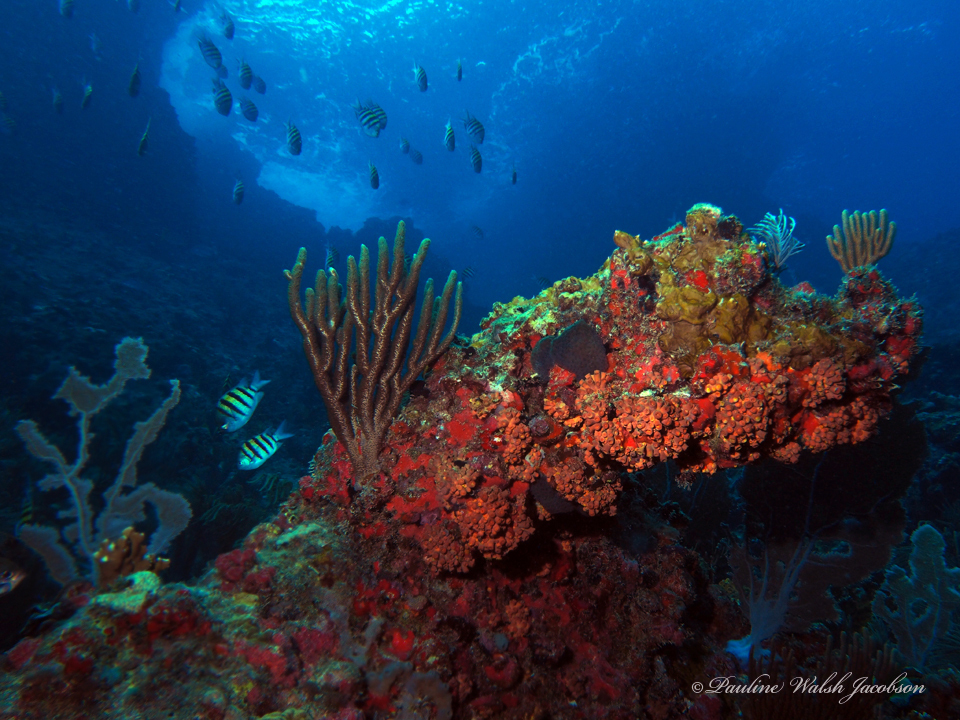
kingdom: Animalia
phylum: Chordata
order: Perciformes
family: Pomacentridae
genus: Abudefduf
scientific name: Abudefduf saxatilis
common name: Sergeant major
